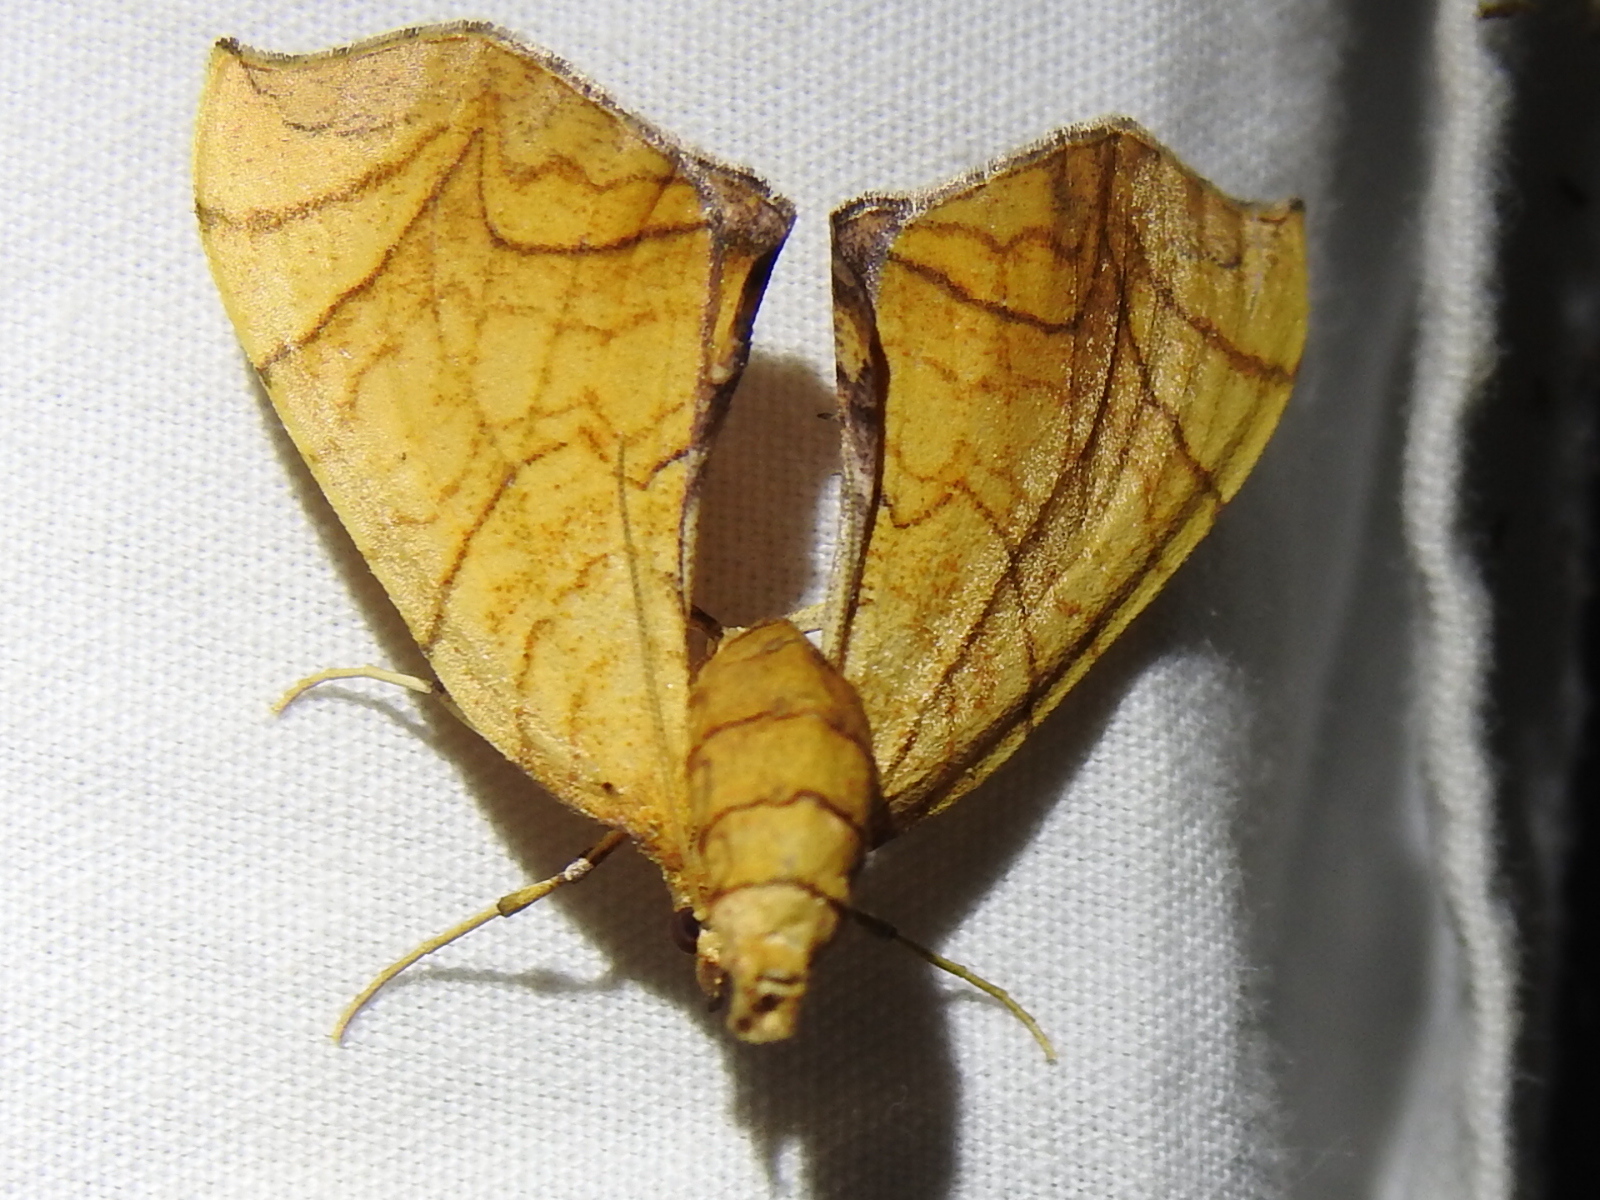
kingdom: Animalia
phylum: Arthropoda
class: Insecta
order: Lepidoptera
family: Geometridae
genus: Eulithis
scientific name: Eulithis
